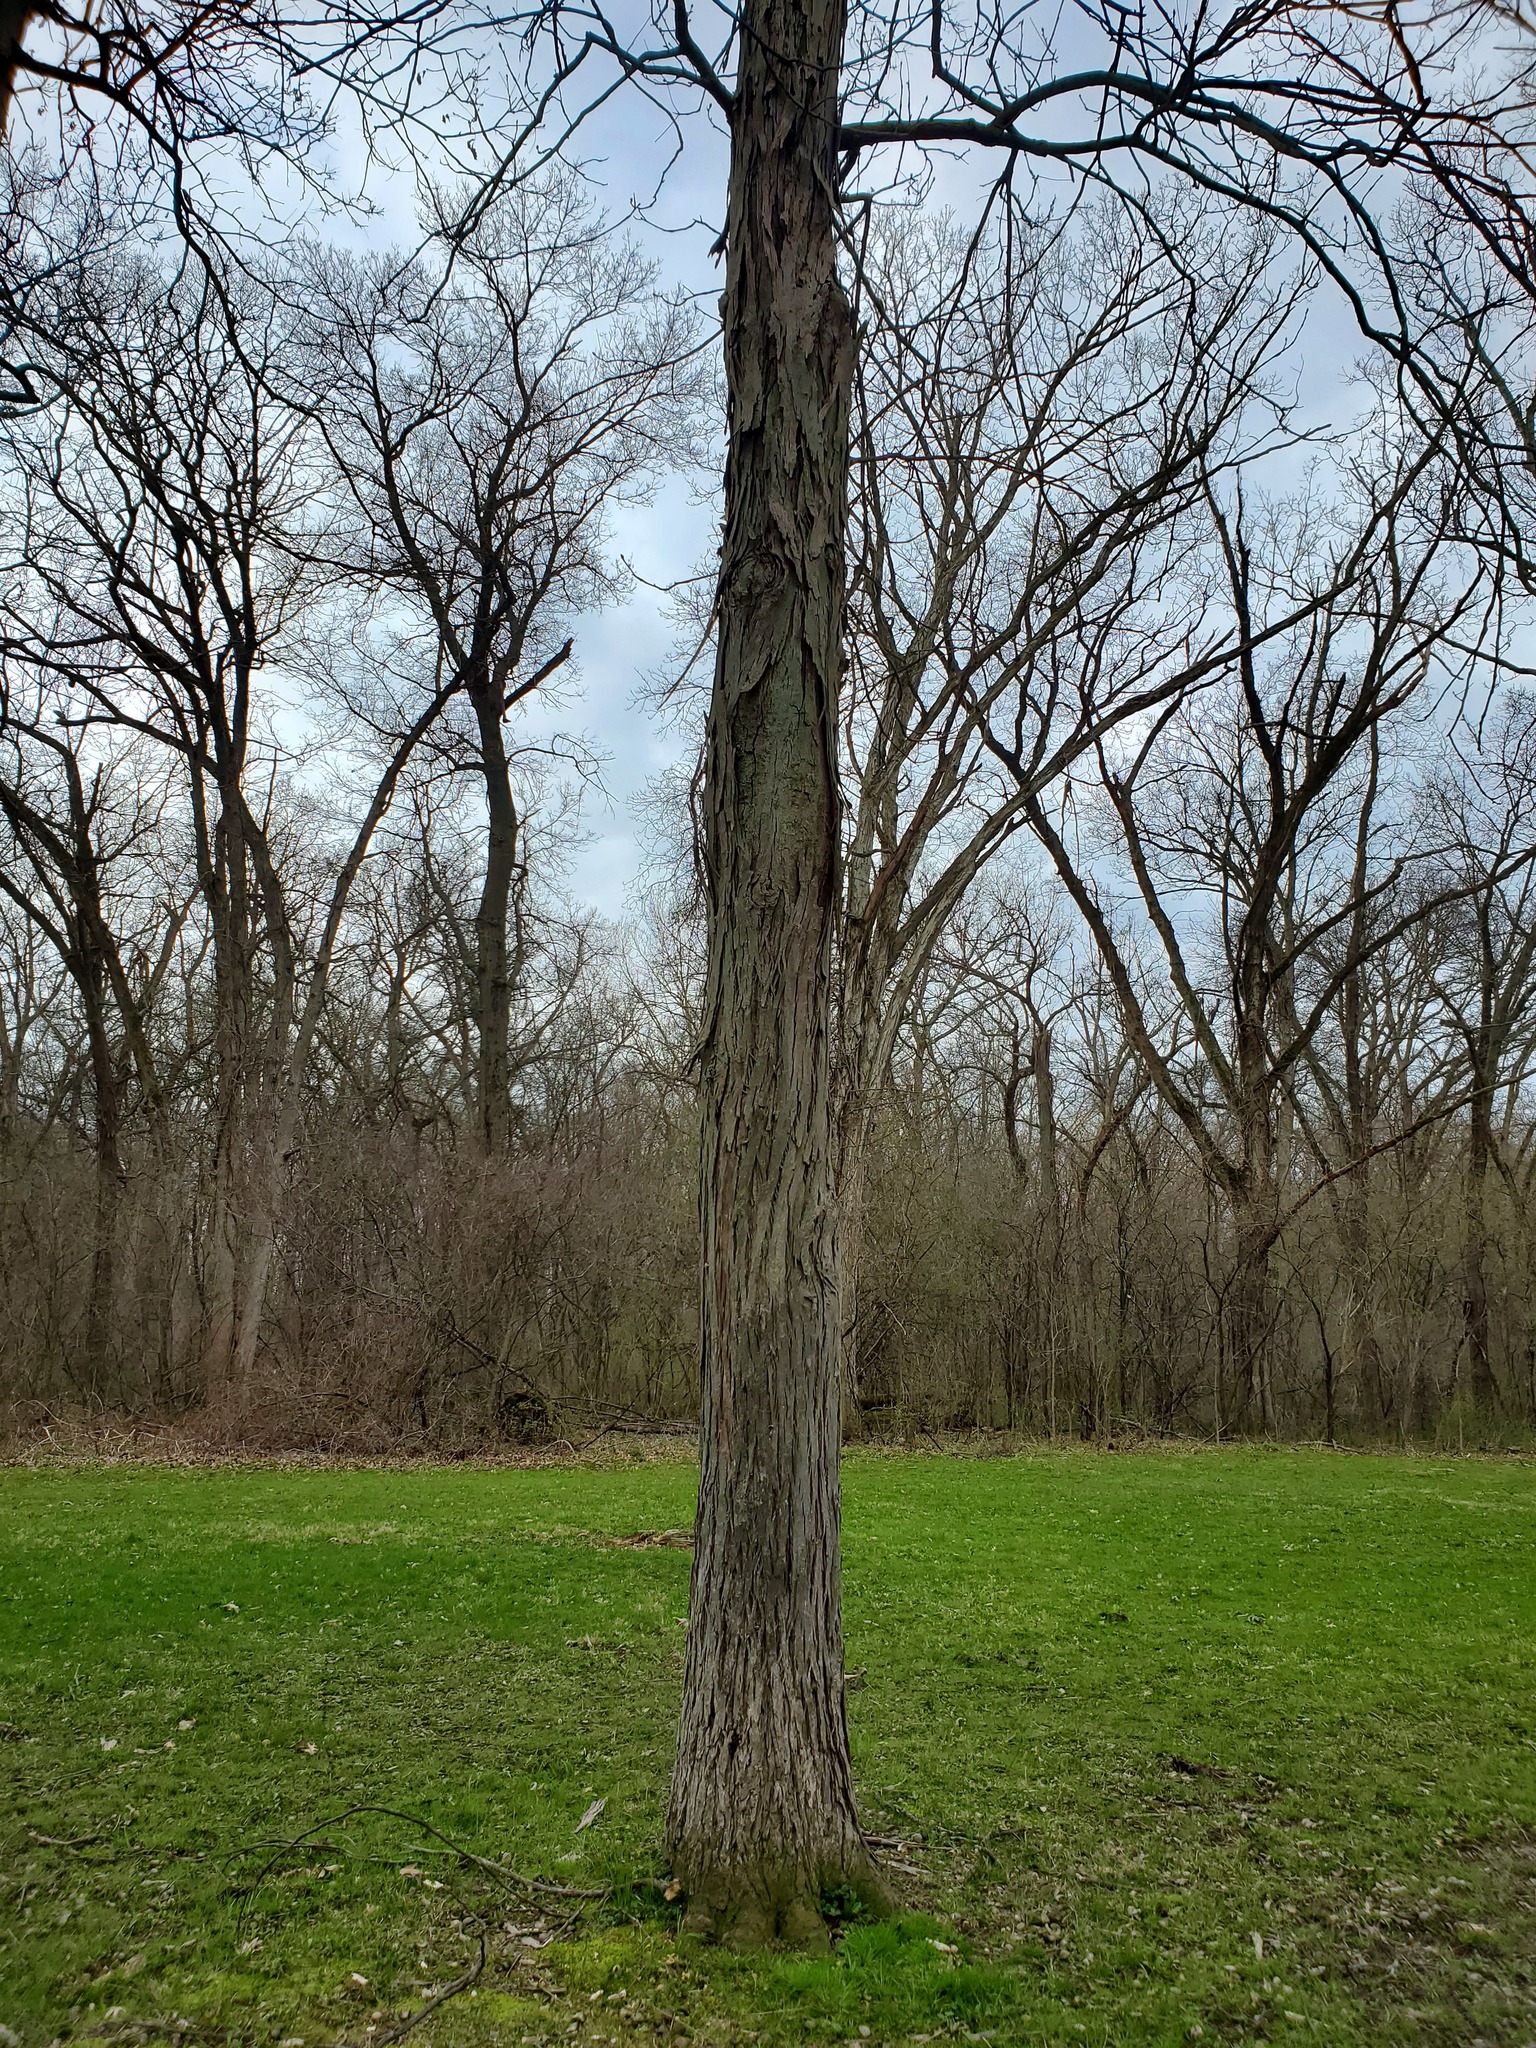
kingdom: Plantae
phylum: Tracheophyta
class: Magnoliopsida
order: Fagales
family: Juglandaceae
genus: Carya
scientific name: Carya ovata
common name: Shagbark hickory
